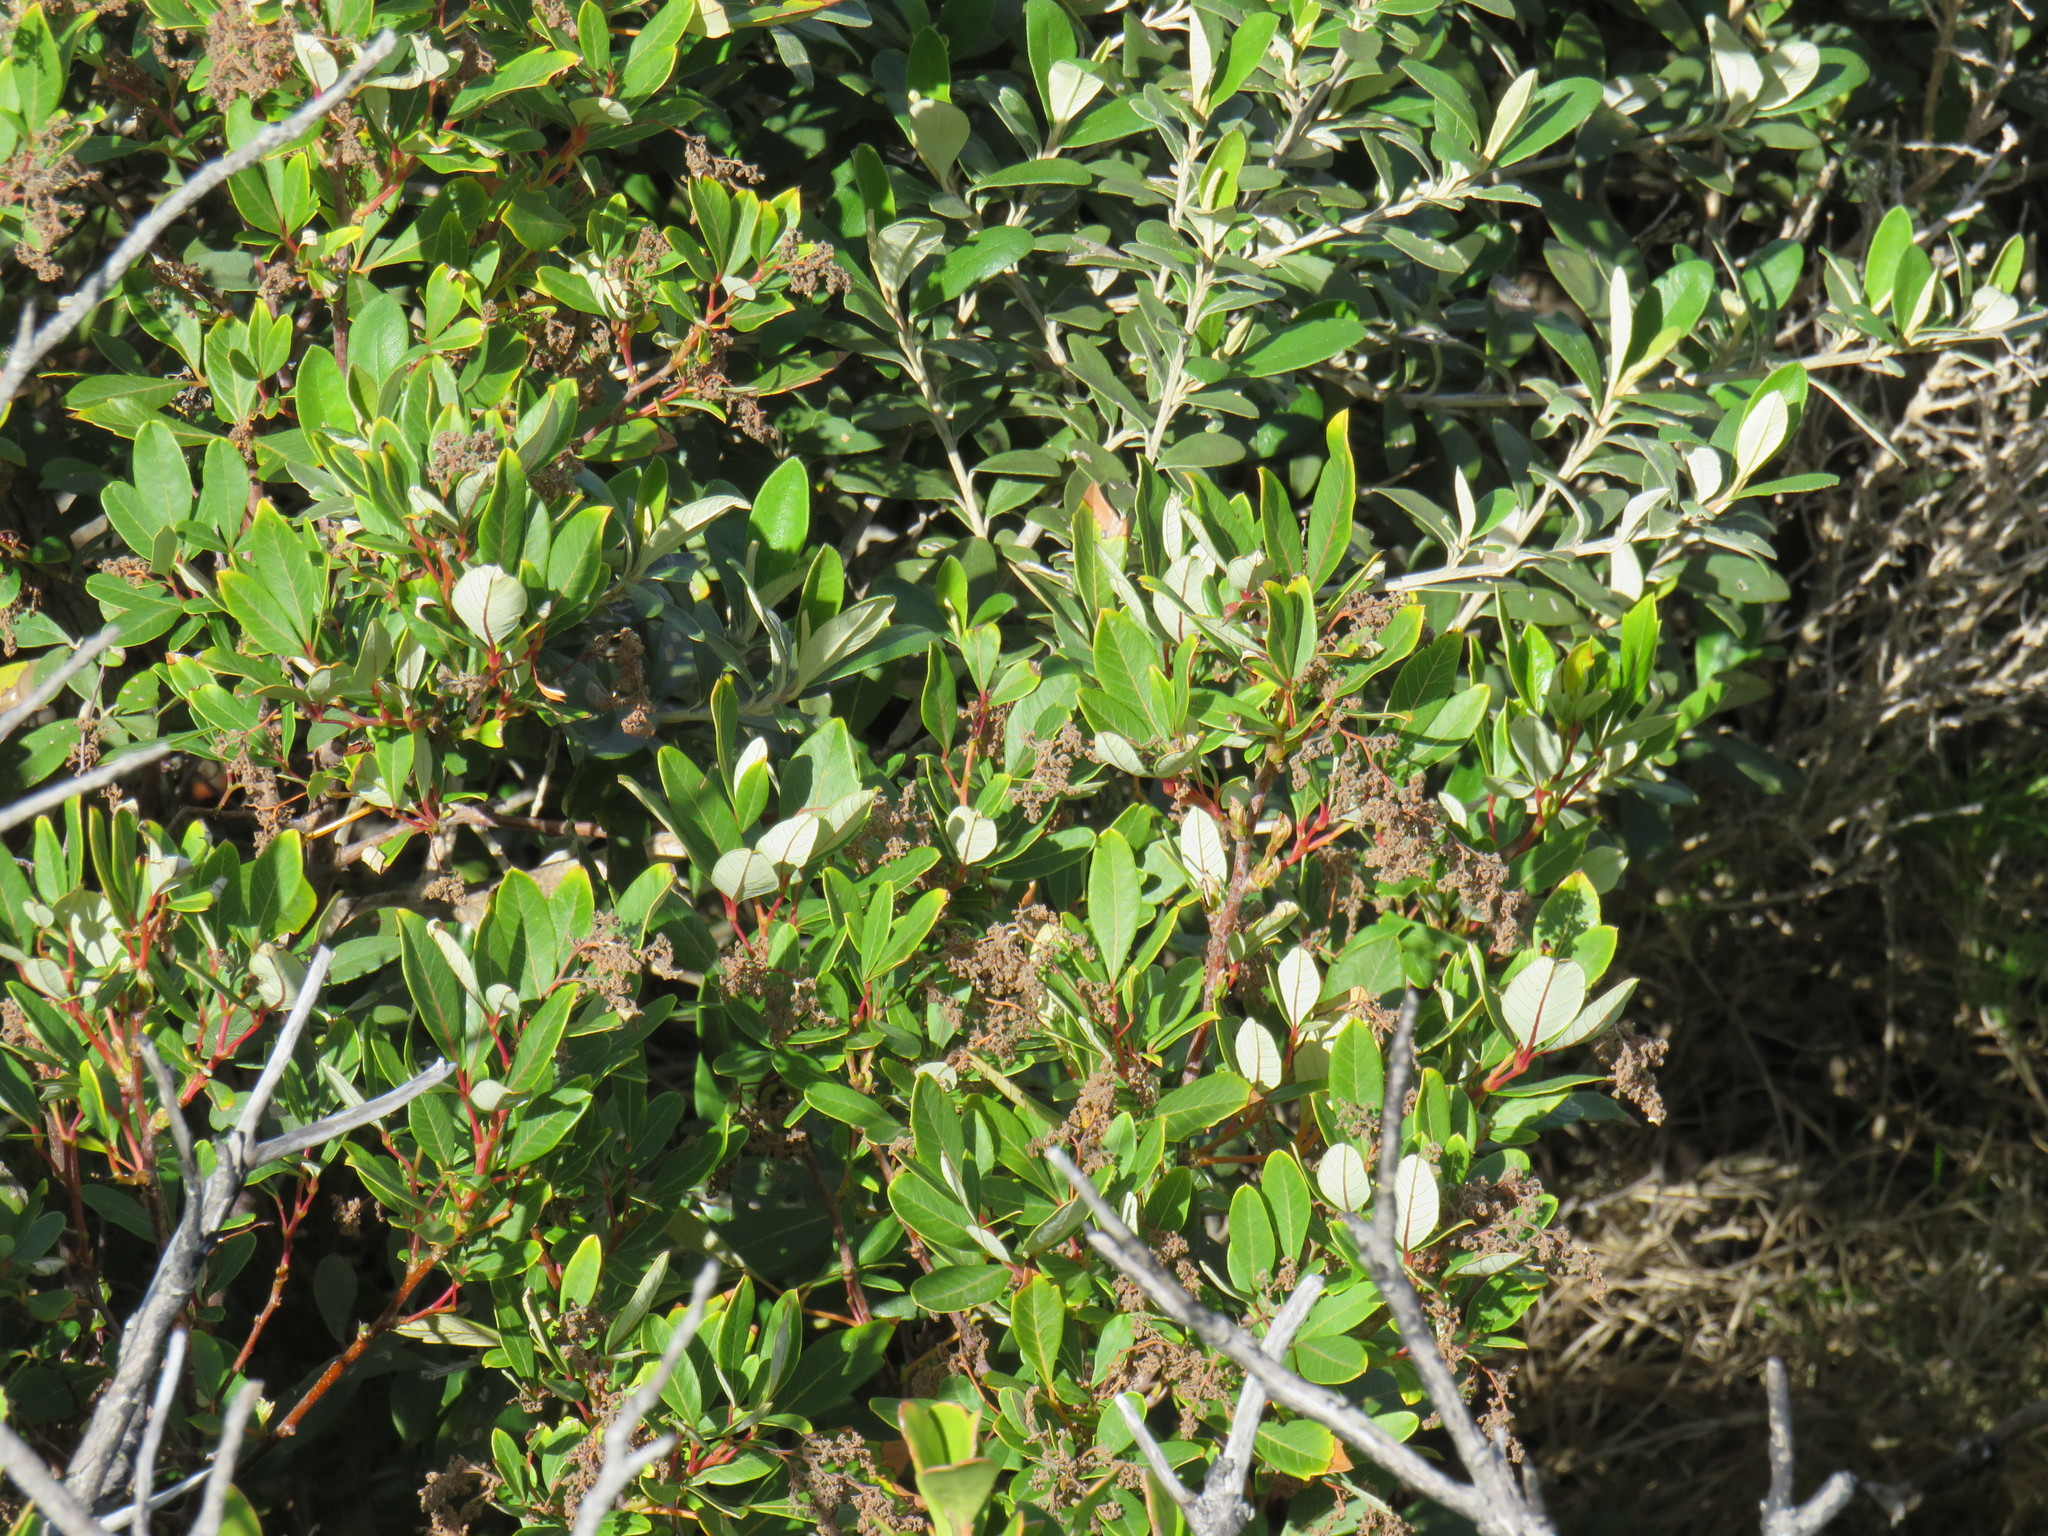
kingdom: Plantae
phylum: Tracheophyta
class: Magnoliopsida
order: Sapindales
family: Anacardiaceae
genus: Searsia
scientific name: Searsia tomentosa
